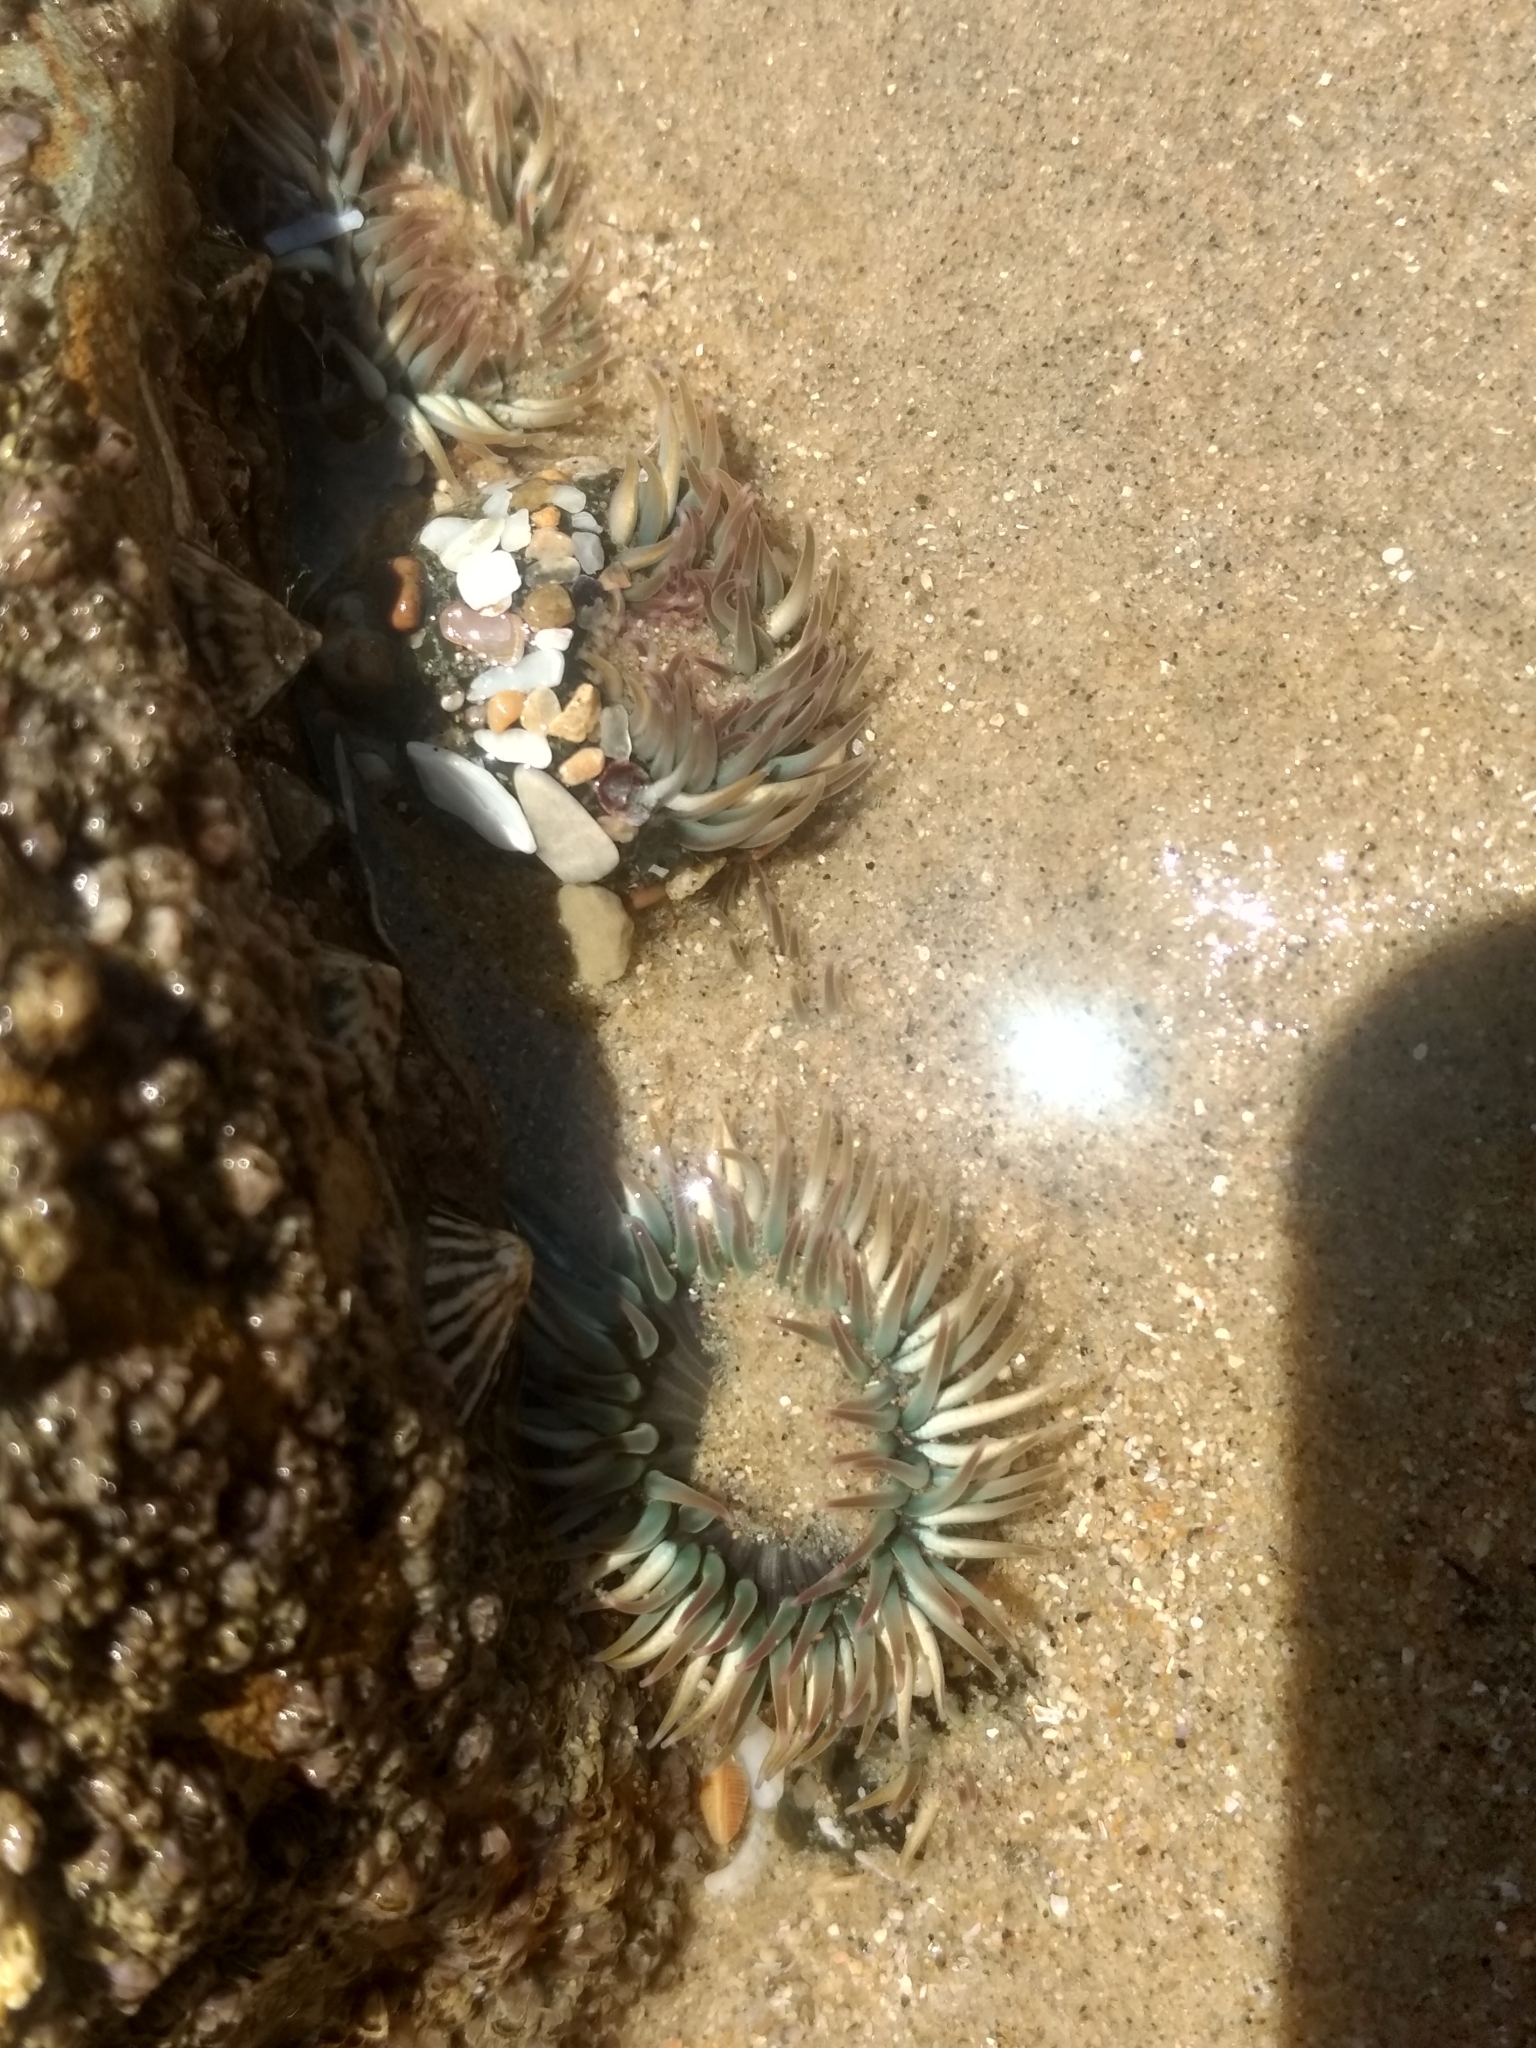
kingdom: Animalia
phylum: Cnidaria
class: Anthozoa
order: Actiniaria
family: Actiniidae
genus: Anthopleura
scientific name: Anthopleura elegantissima
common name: Clonal anemone
